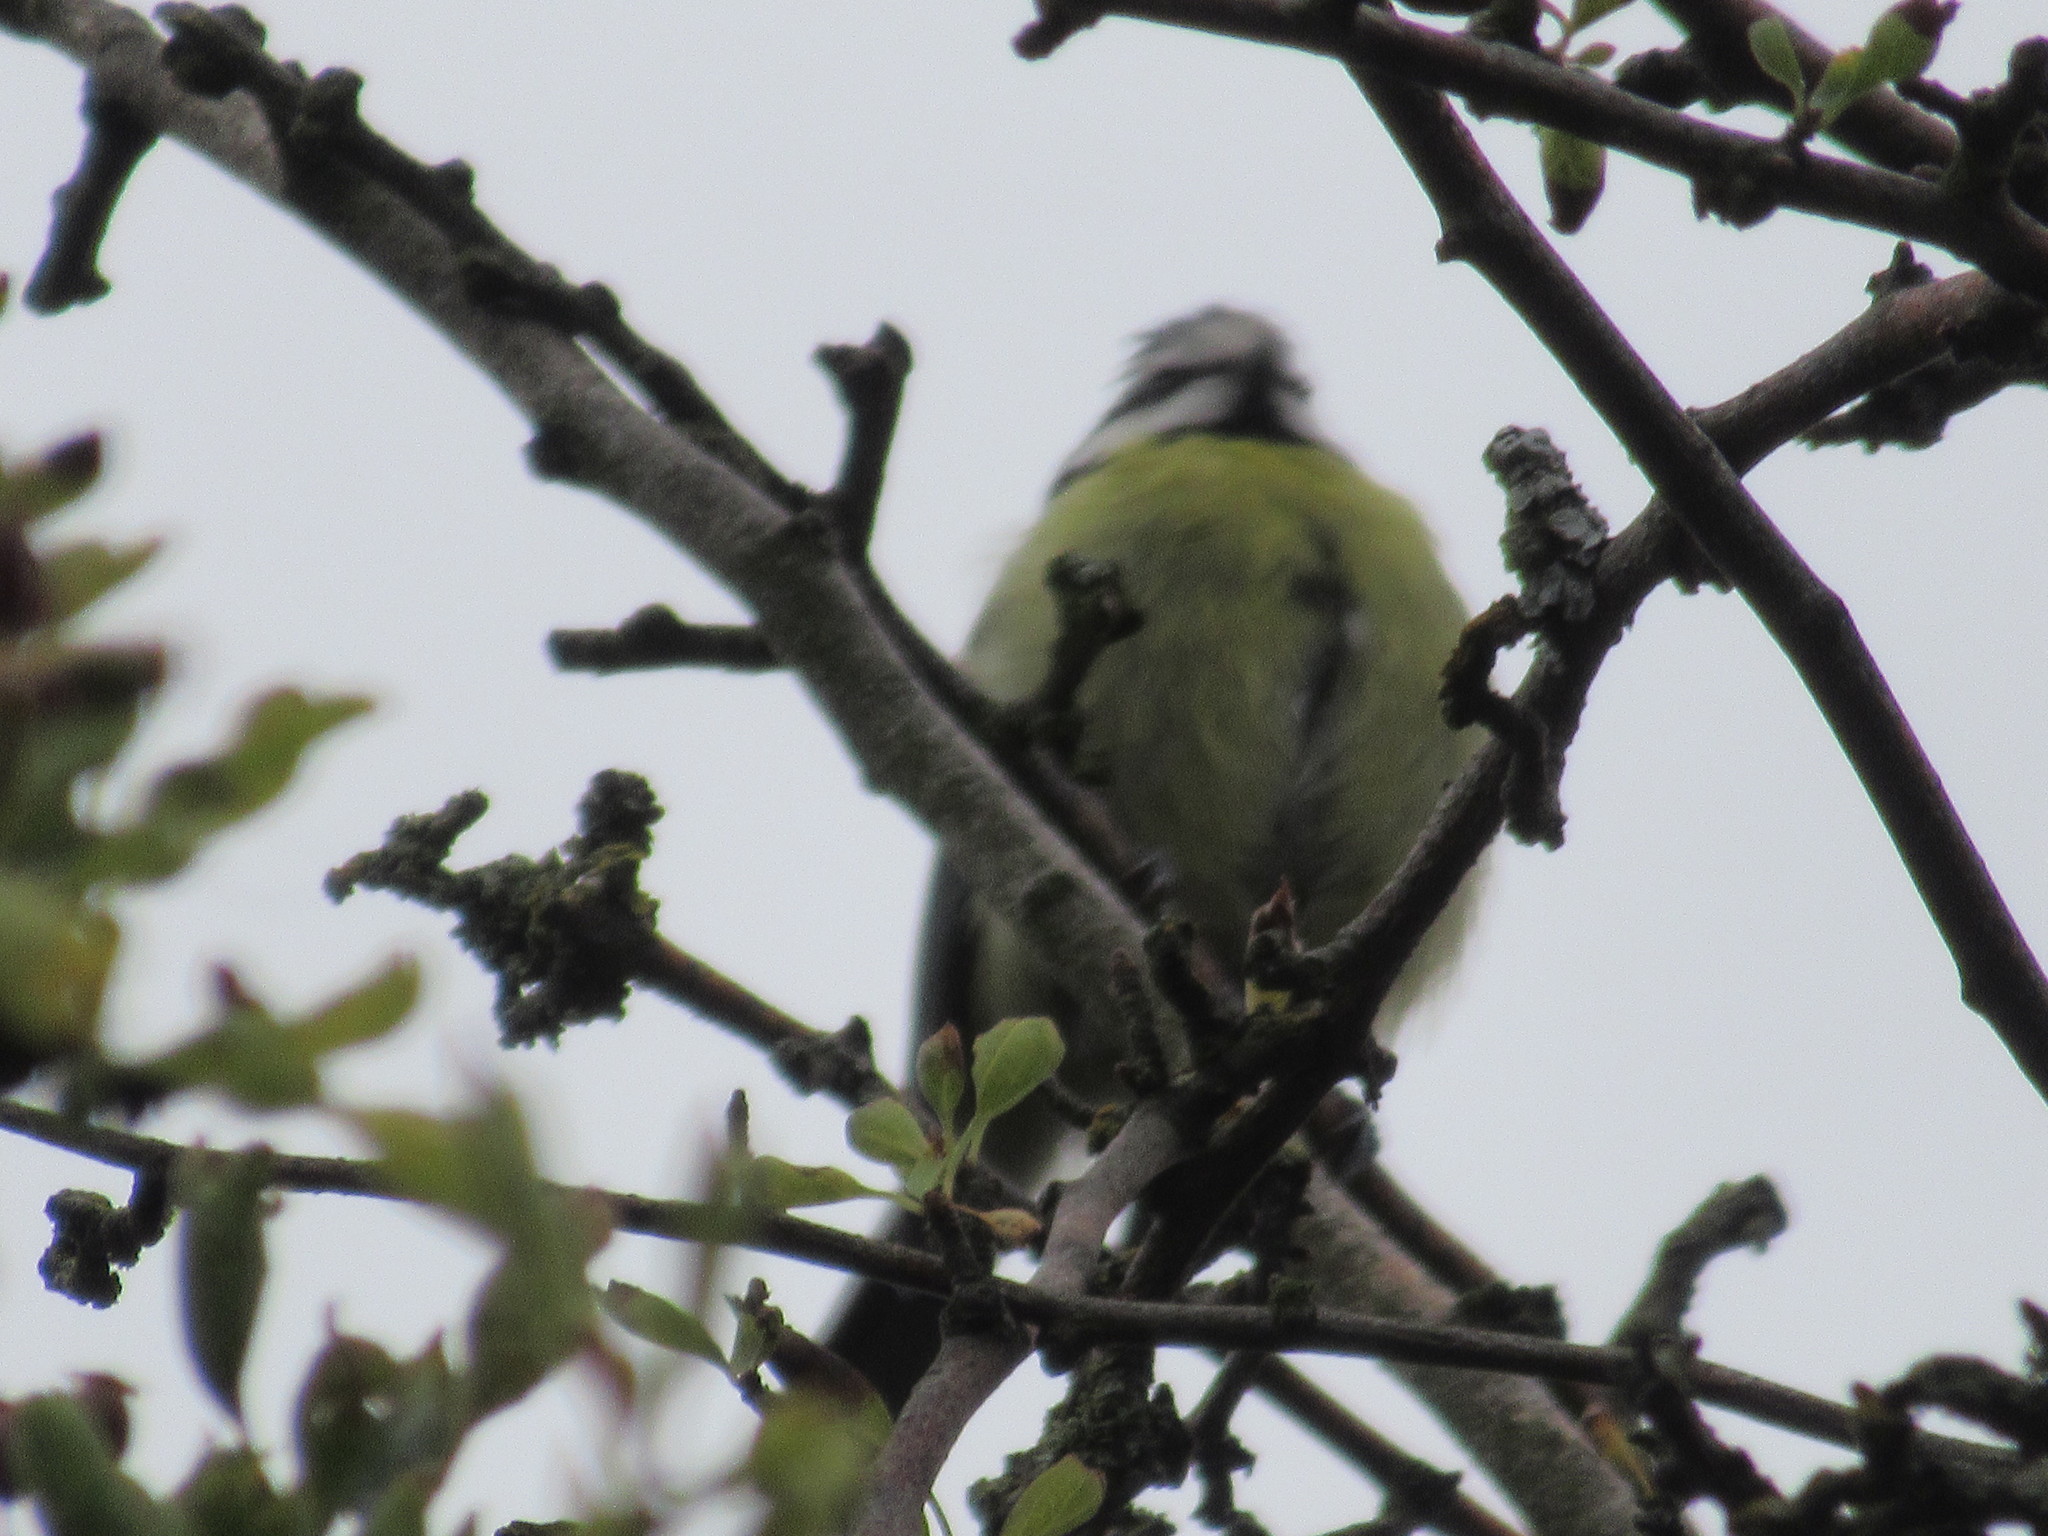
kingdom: Animalia
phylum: Chordata
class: Aves
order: Passeriformes
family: Paridae
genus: Cyanistes
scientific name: Cyanistes caeruleus
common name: Eurasian blue tit
